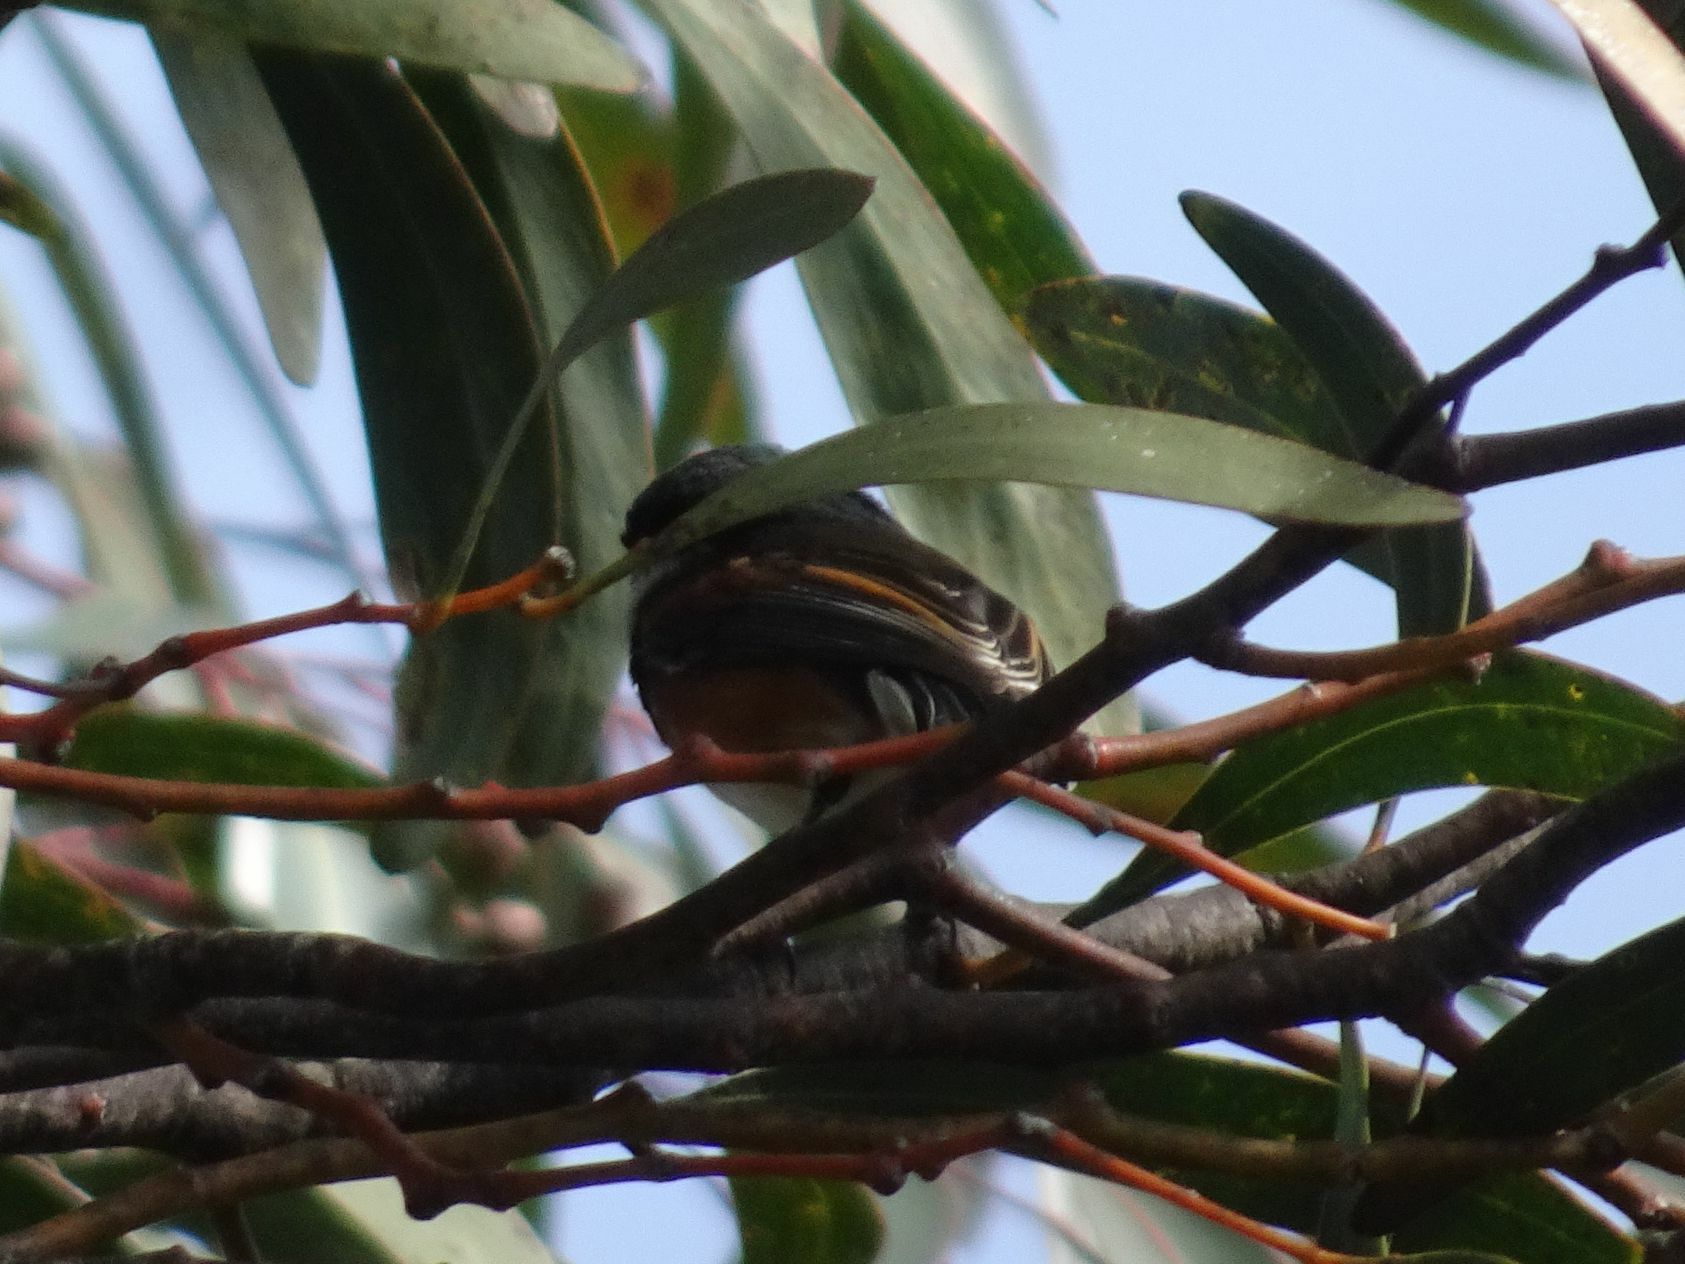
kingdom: Animalia
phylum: Chordata
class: Aves
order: Passeriformes
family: Platysteiridae
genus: Batis
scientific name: Batis capensis
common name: Cape batis
